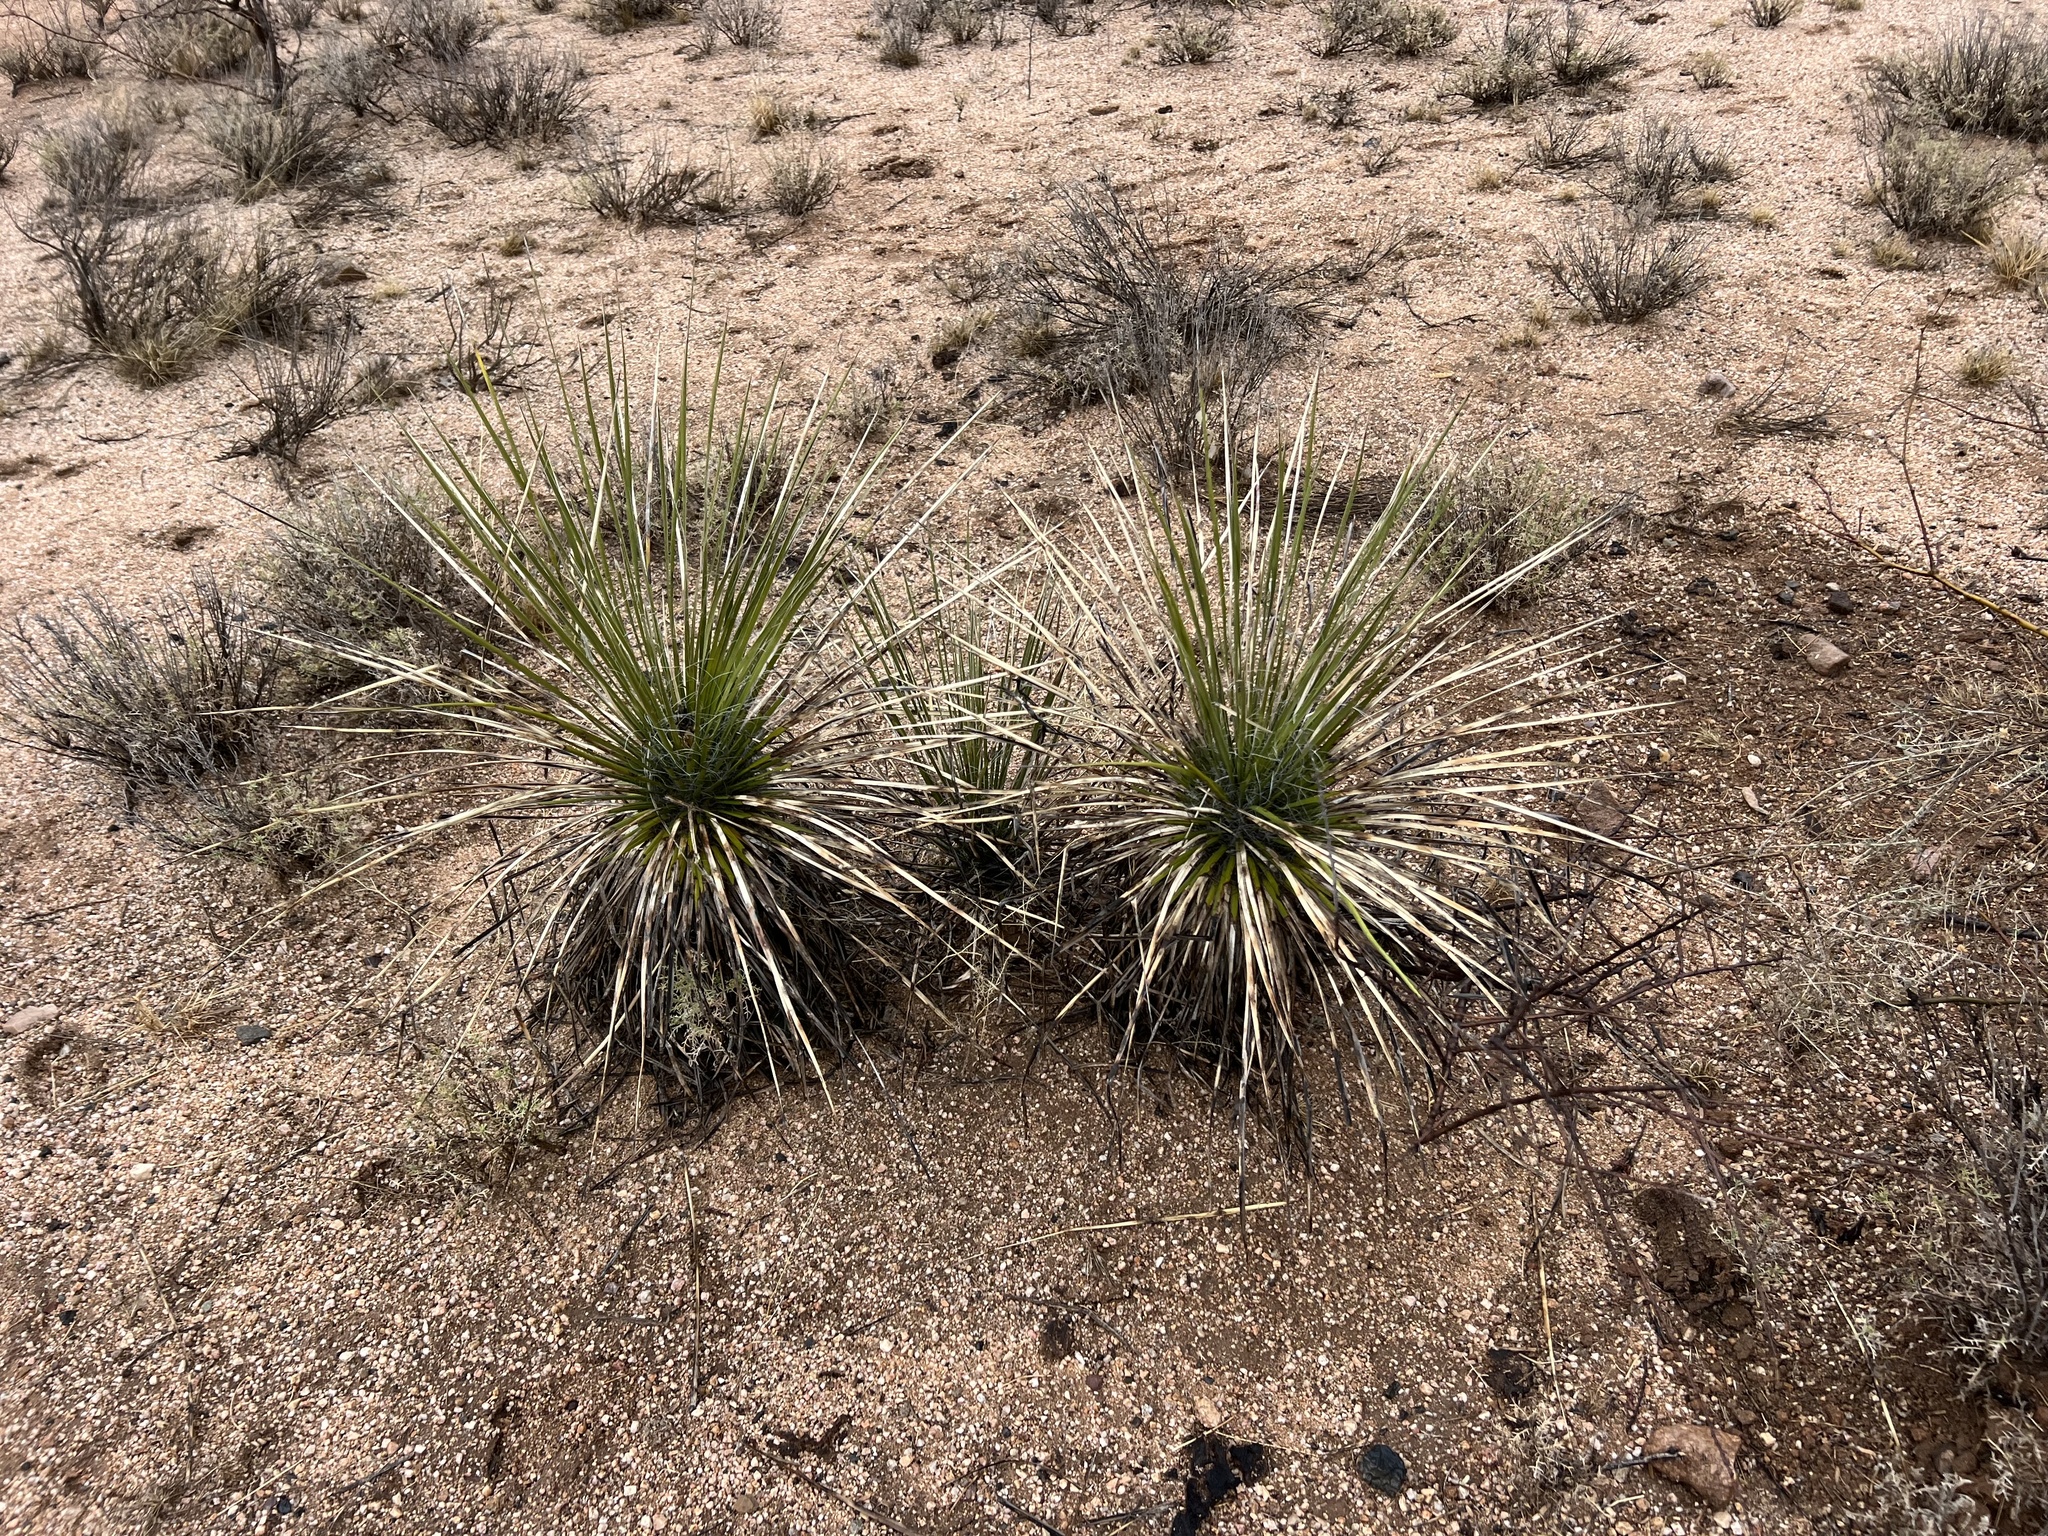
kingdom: Plantae
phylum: Tracheophyta
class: Liliopsida
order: Asparagales
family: Asparagaceae
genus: Yucca
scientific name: Yucca elata
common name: Palmella
